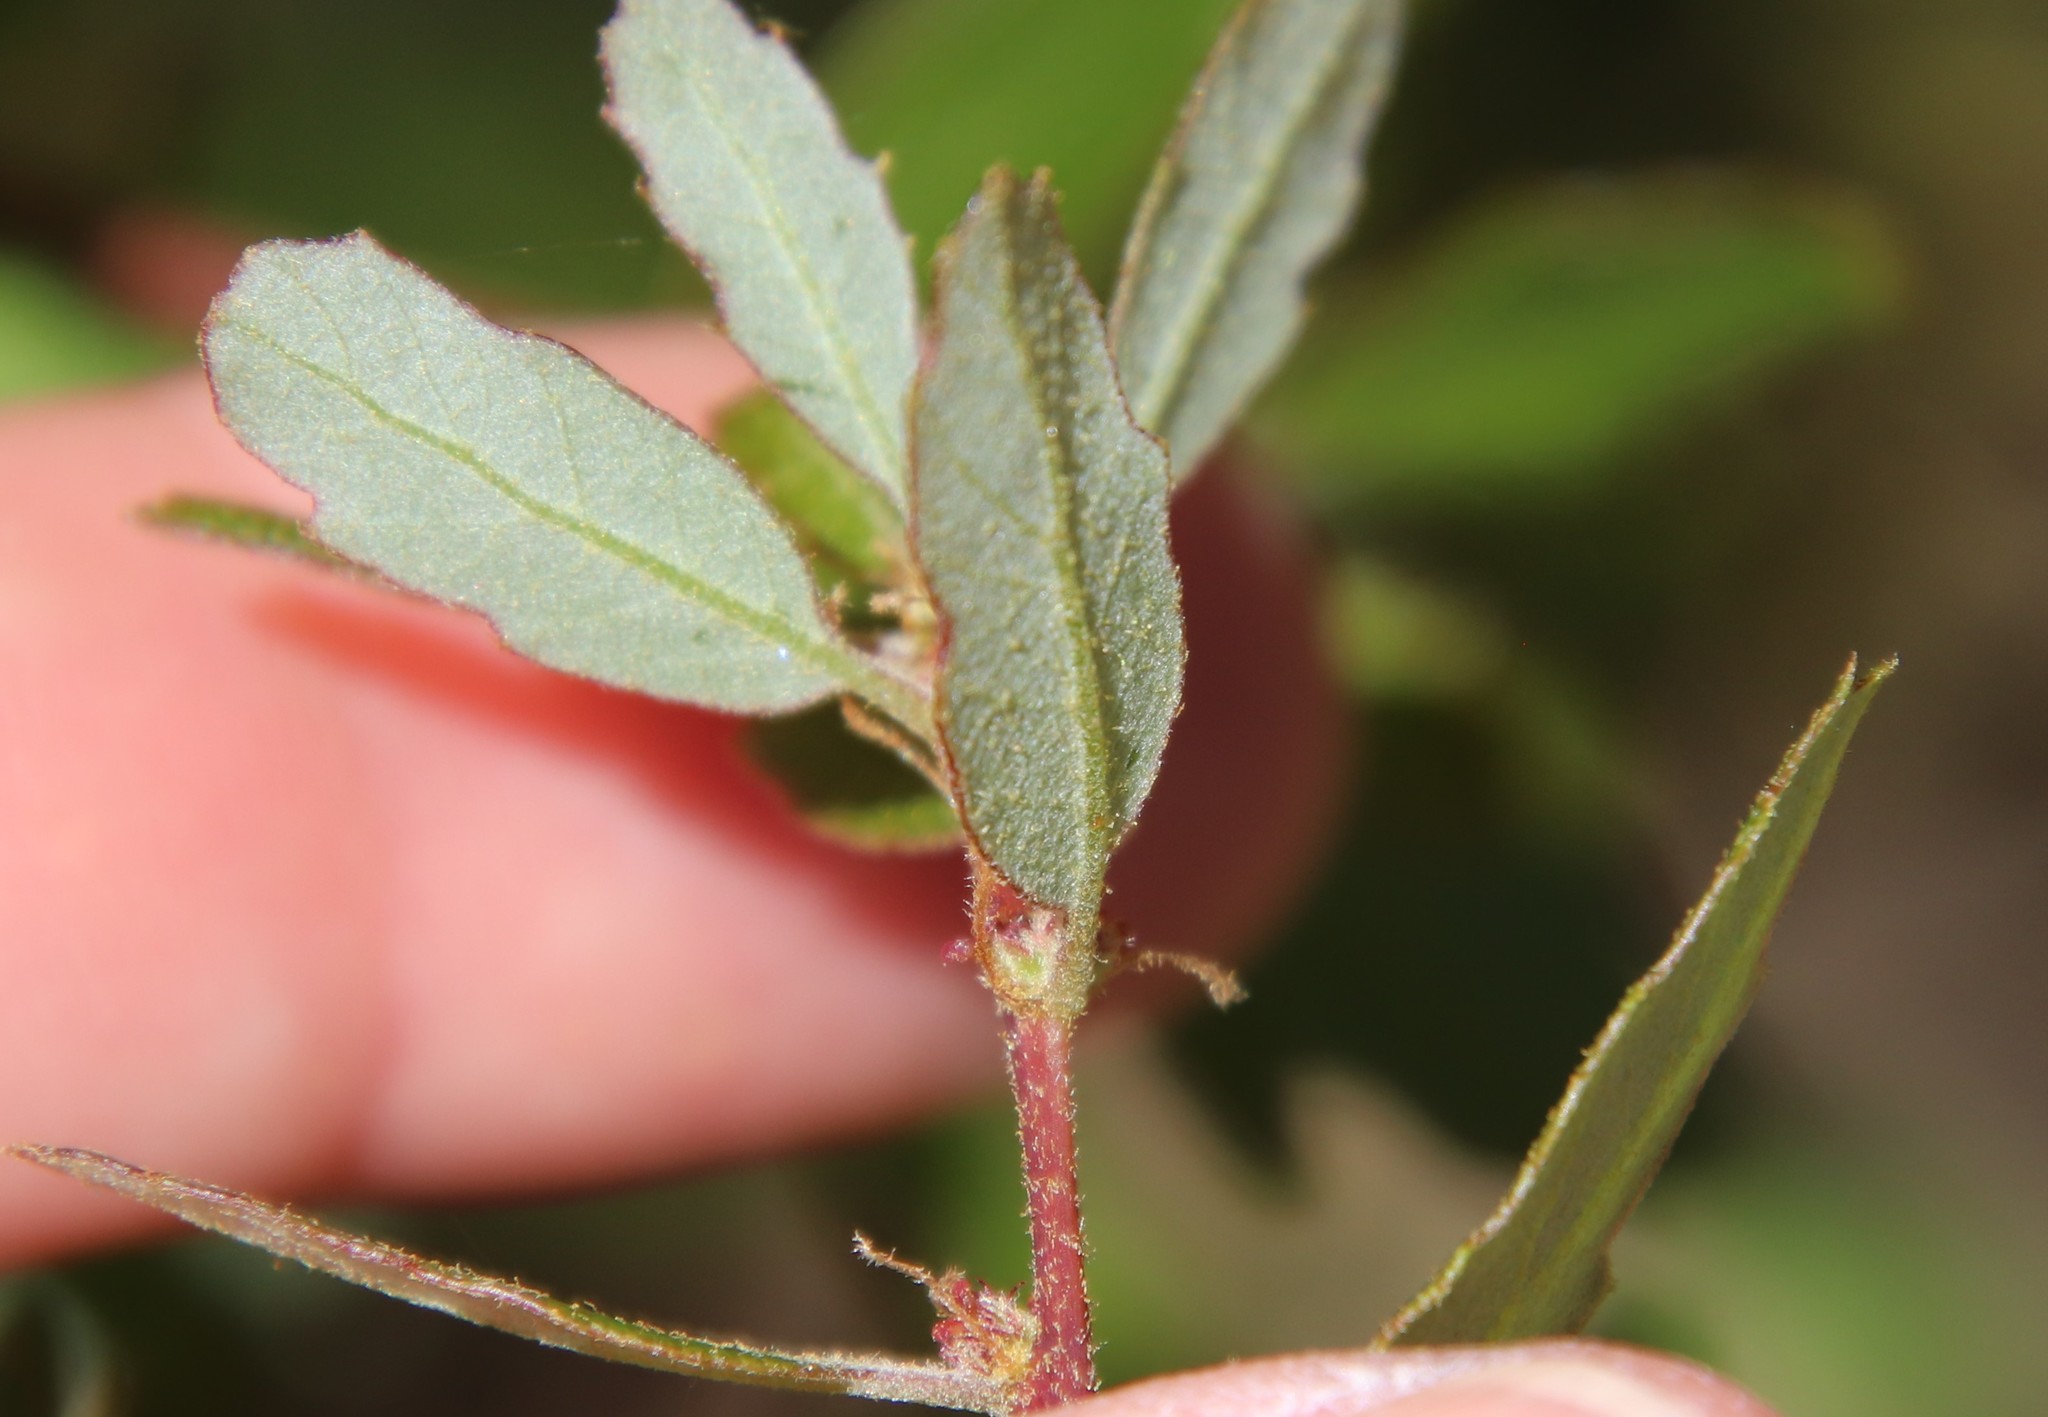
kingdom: Plantae
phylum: Tracheophyta
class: Magnoliopsida
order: Fagales
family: Fagaceae
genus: Quercus
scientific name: Quercus berberidifolia
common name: California scrub oak
